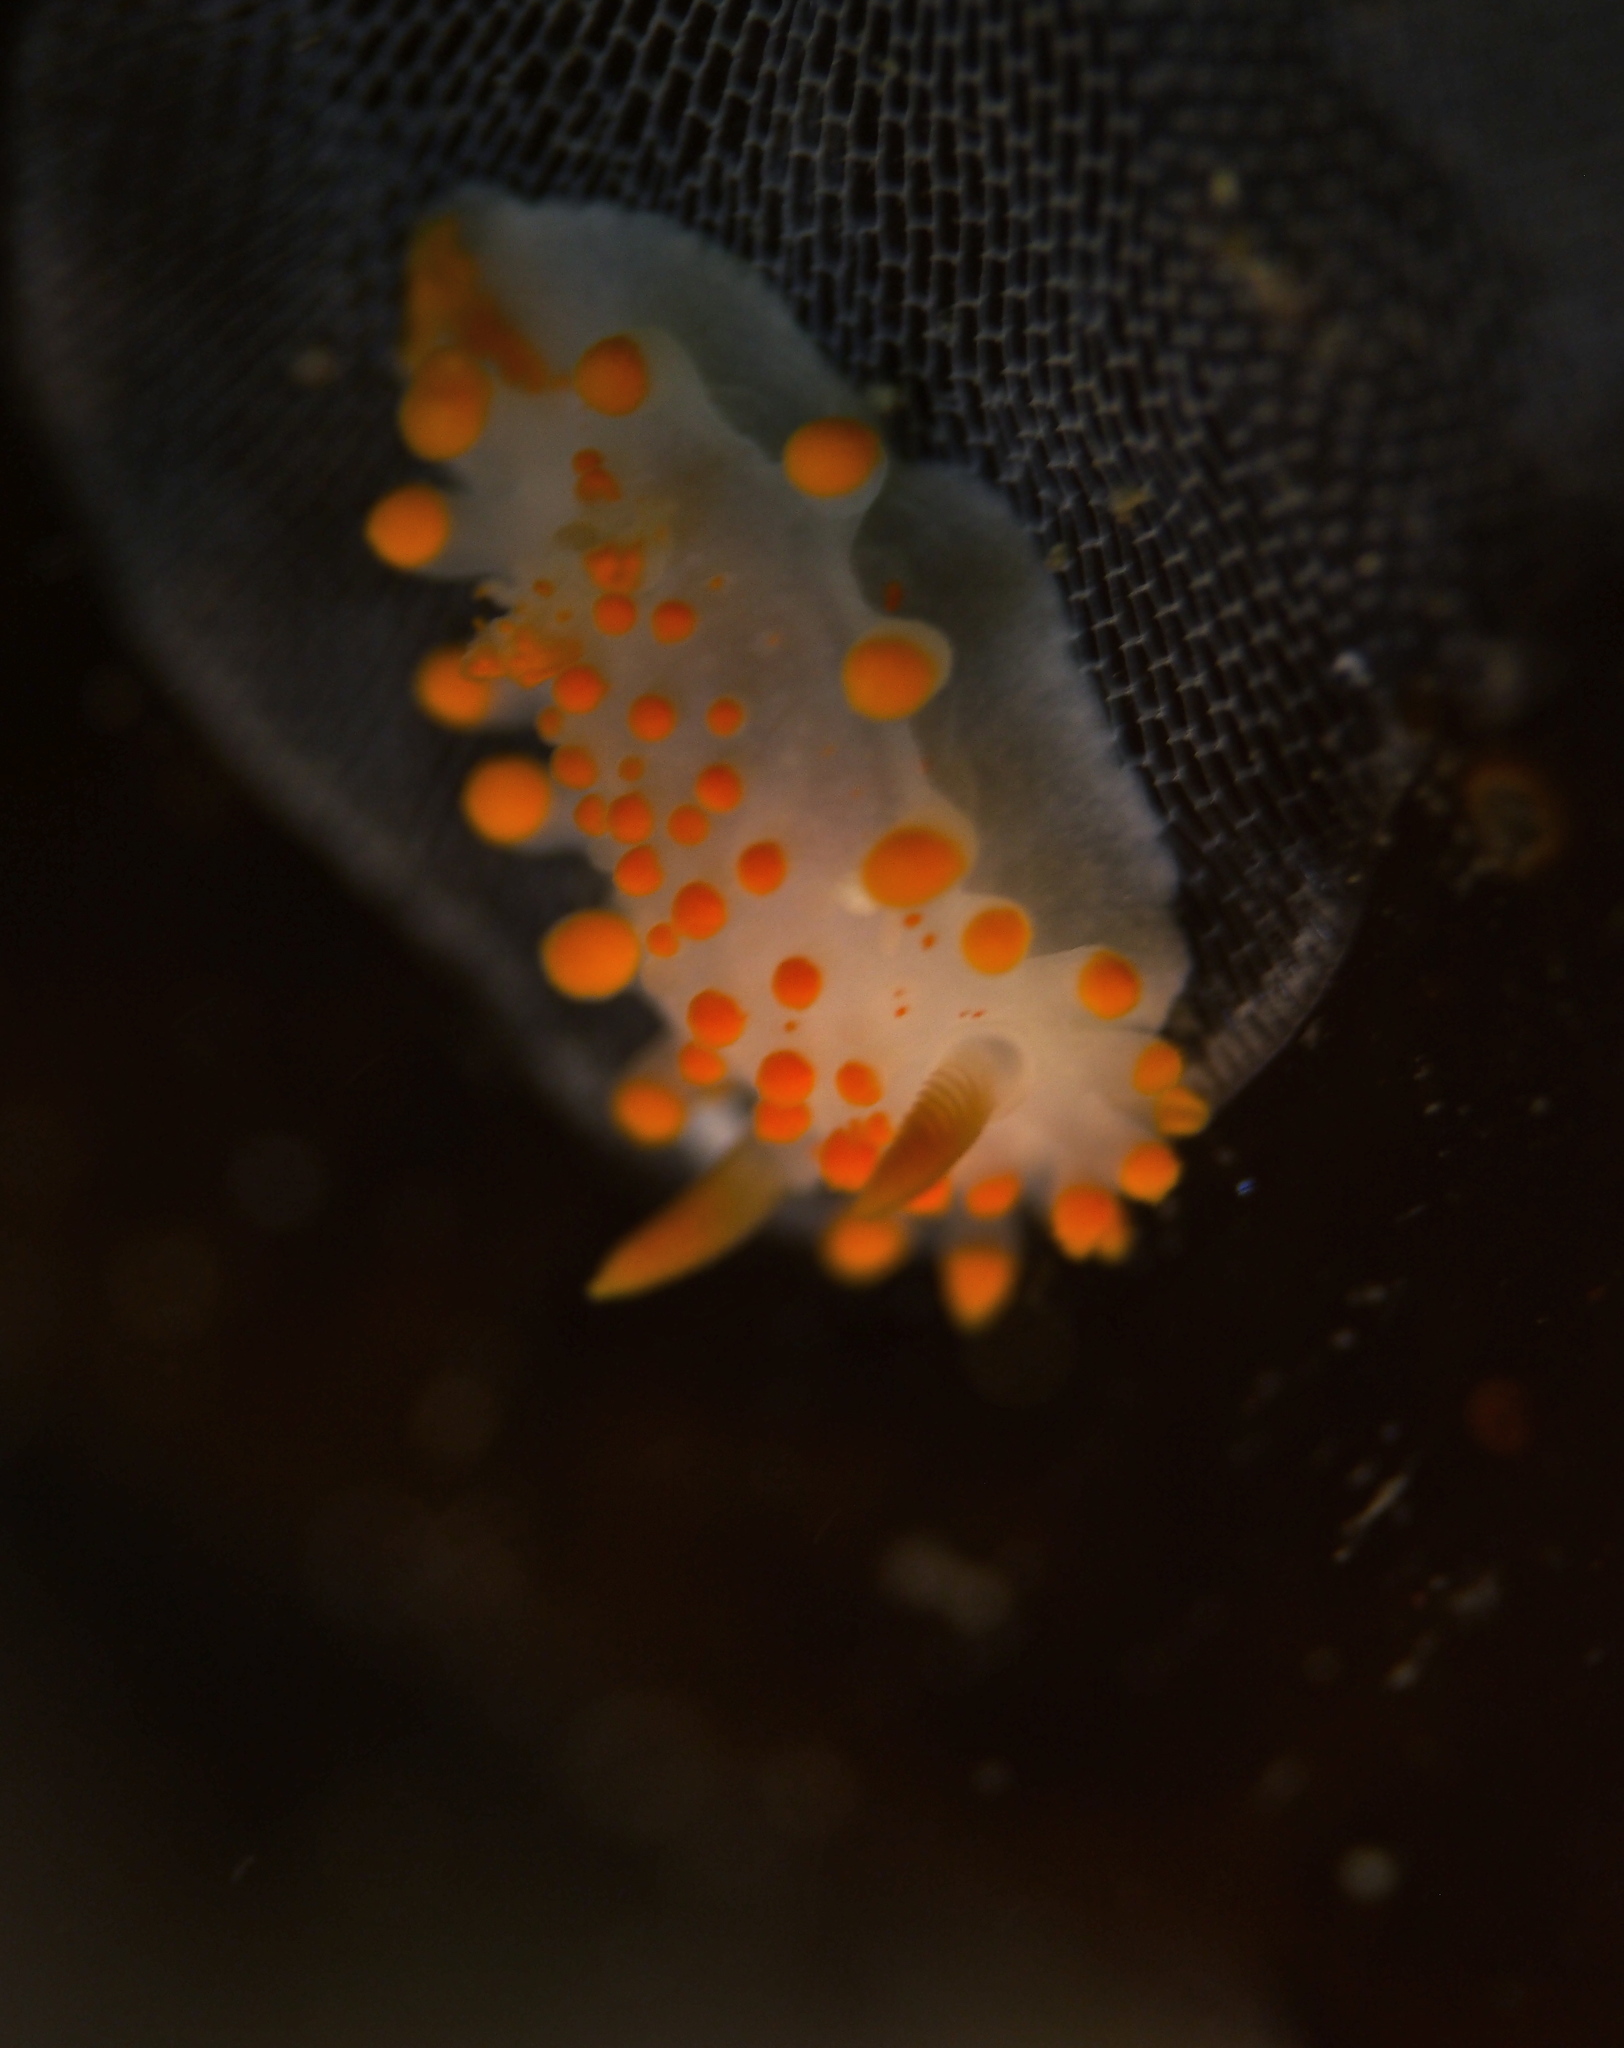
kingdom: Animalia
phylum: Mollusca
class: Gastropoda
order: Nudibranchia
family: Polyceridae
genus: Limacia
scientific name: Limacia clavigera
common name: Orange-clubbed sea slug
